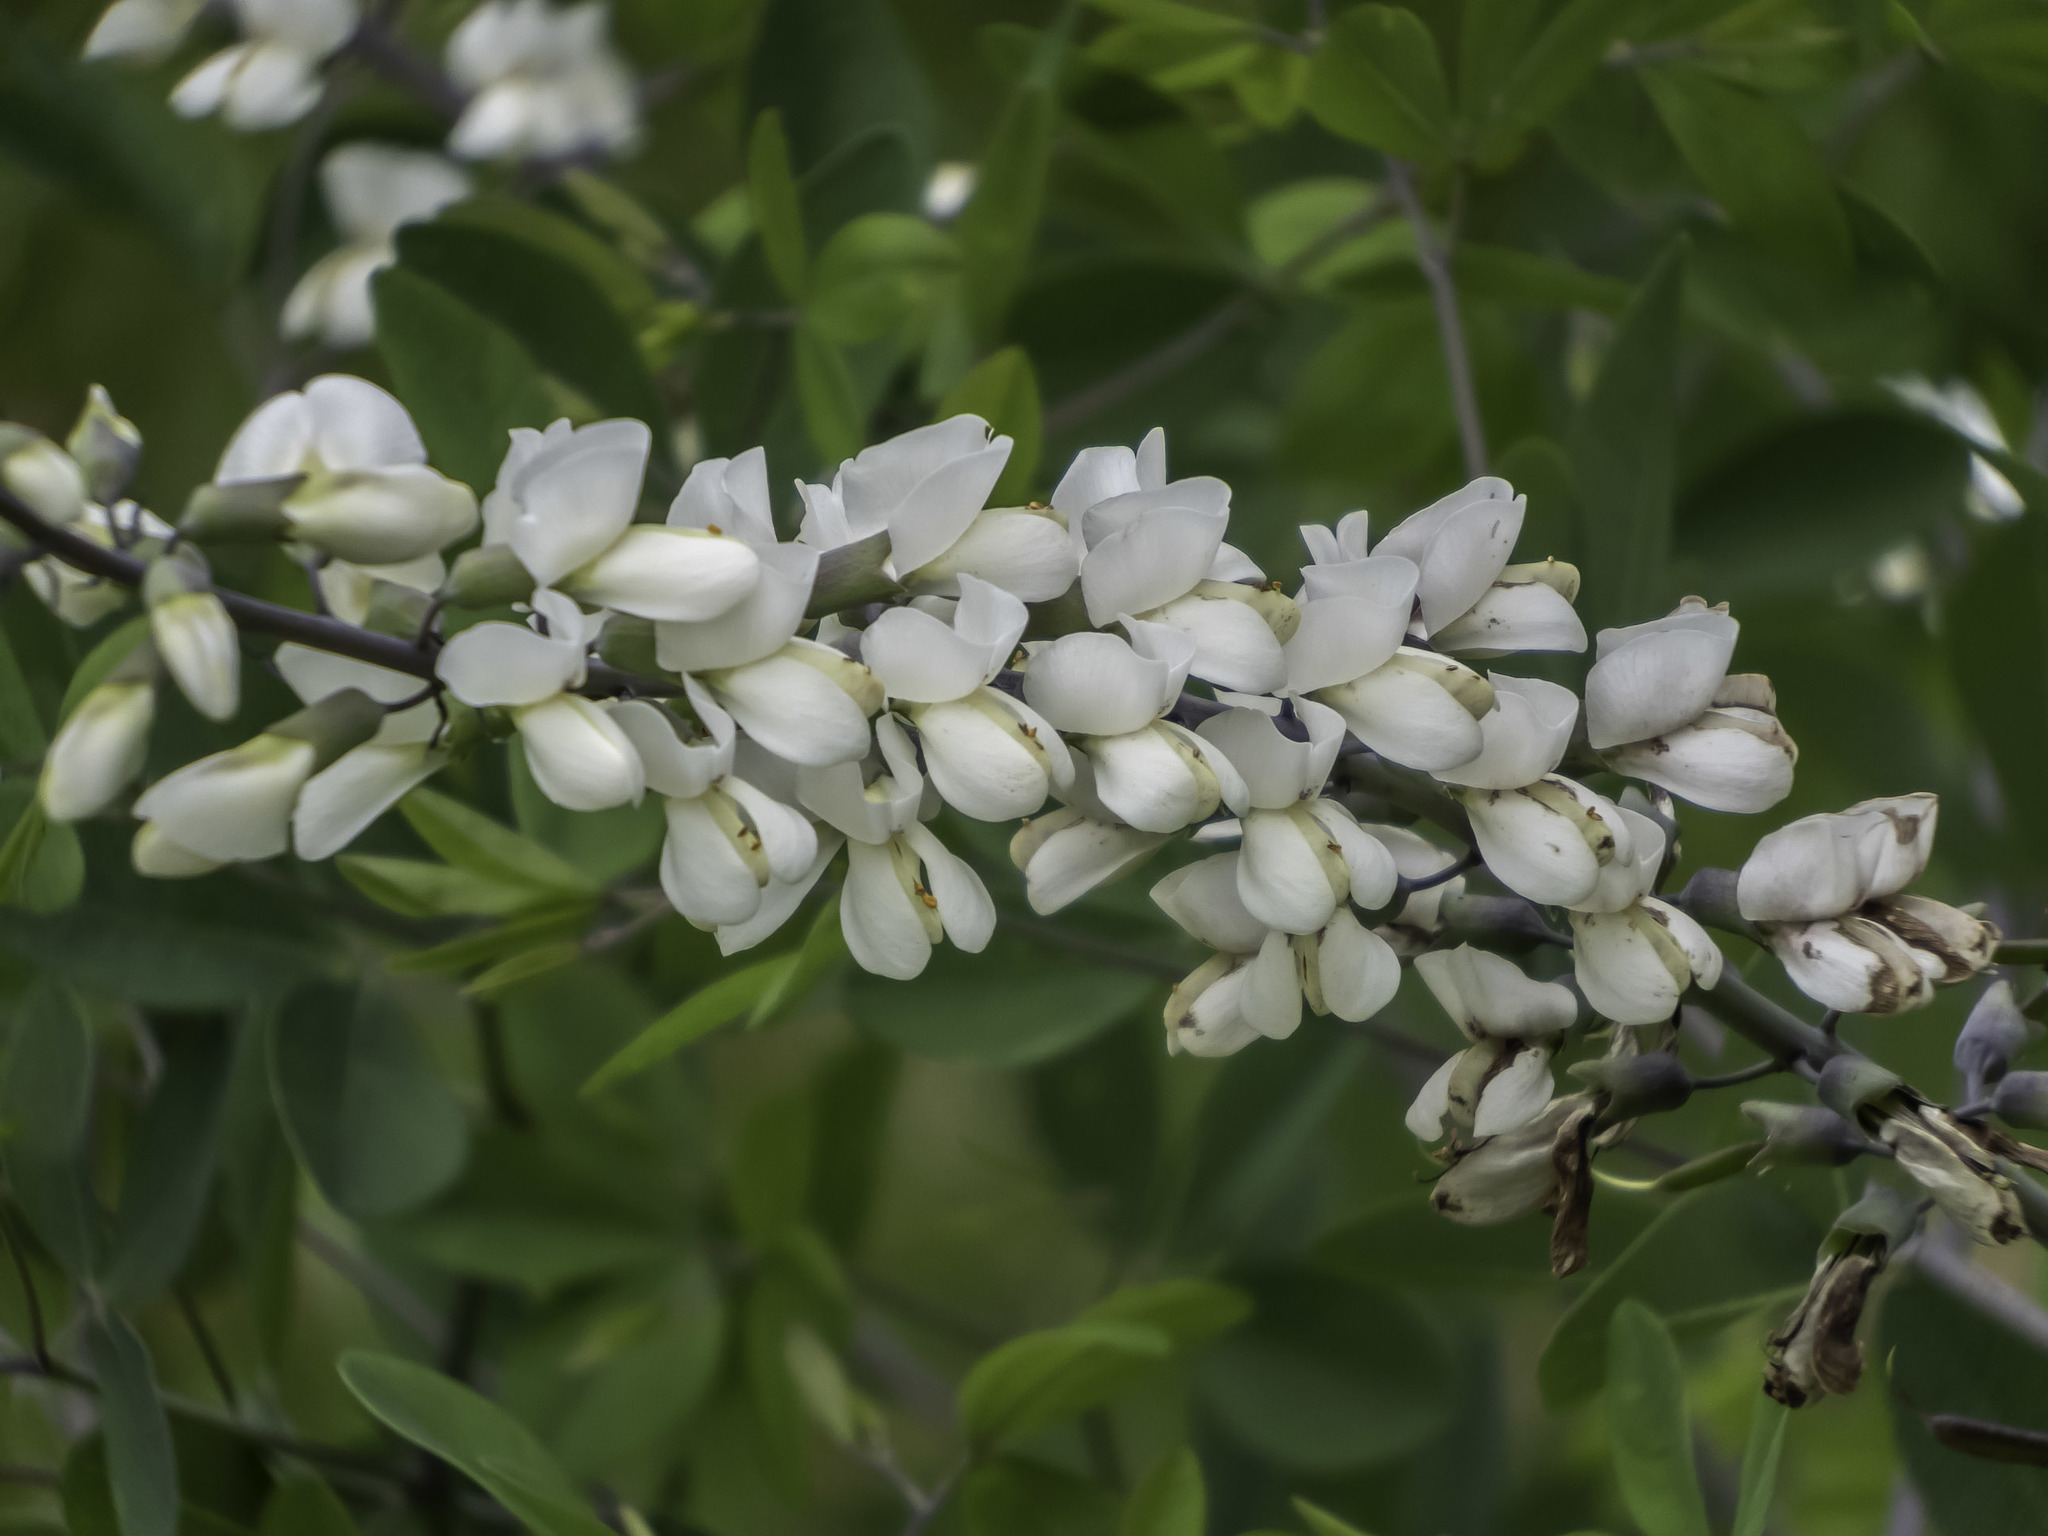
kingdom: Plantae
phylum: Tracheophyta
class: Magnoliopsida
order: Fabales
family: Fabaceae
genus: Baptisia
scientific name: Baptisia alba
